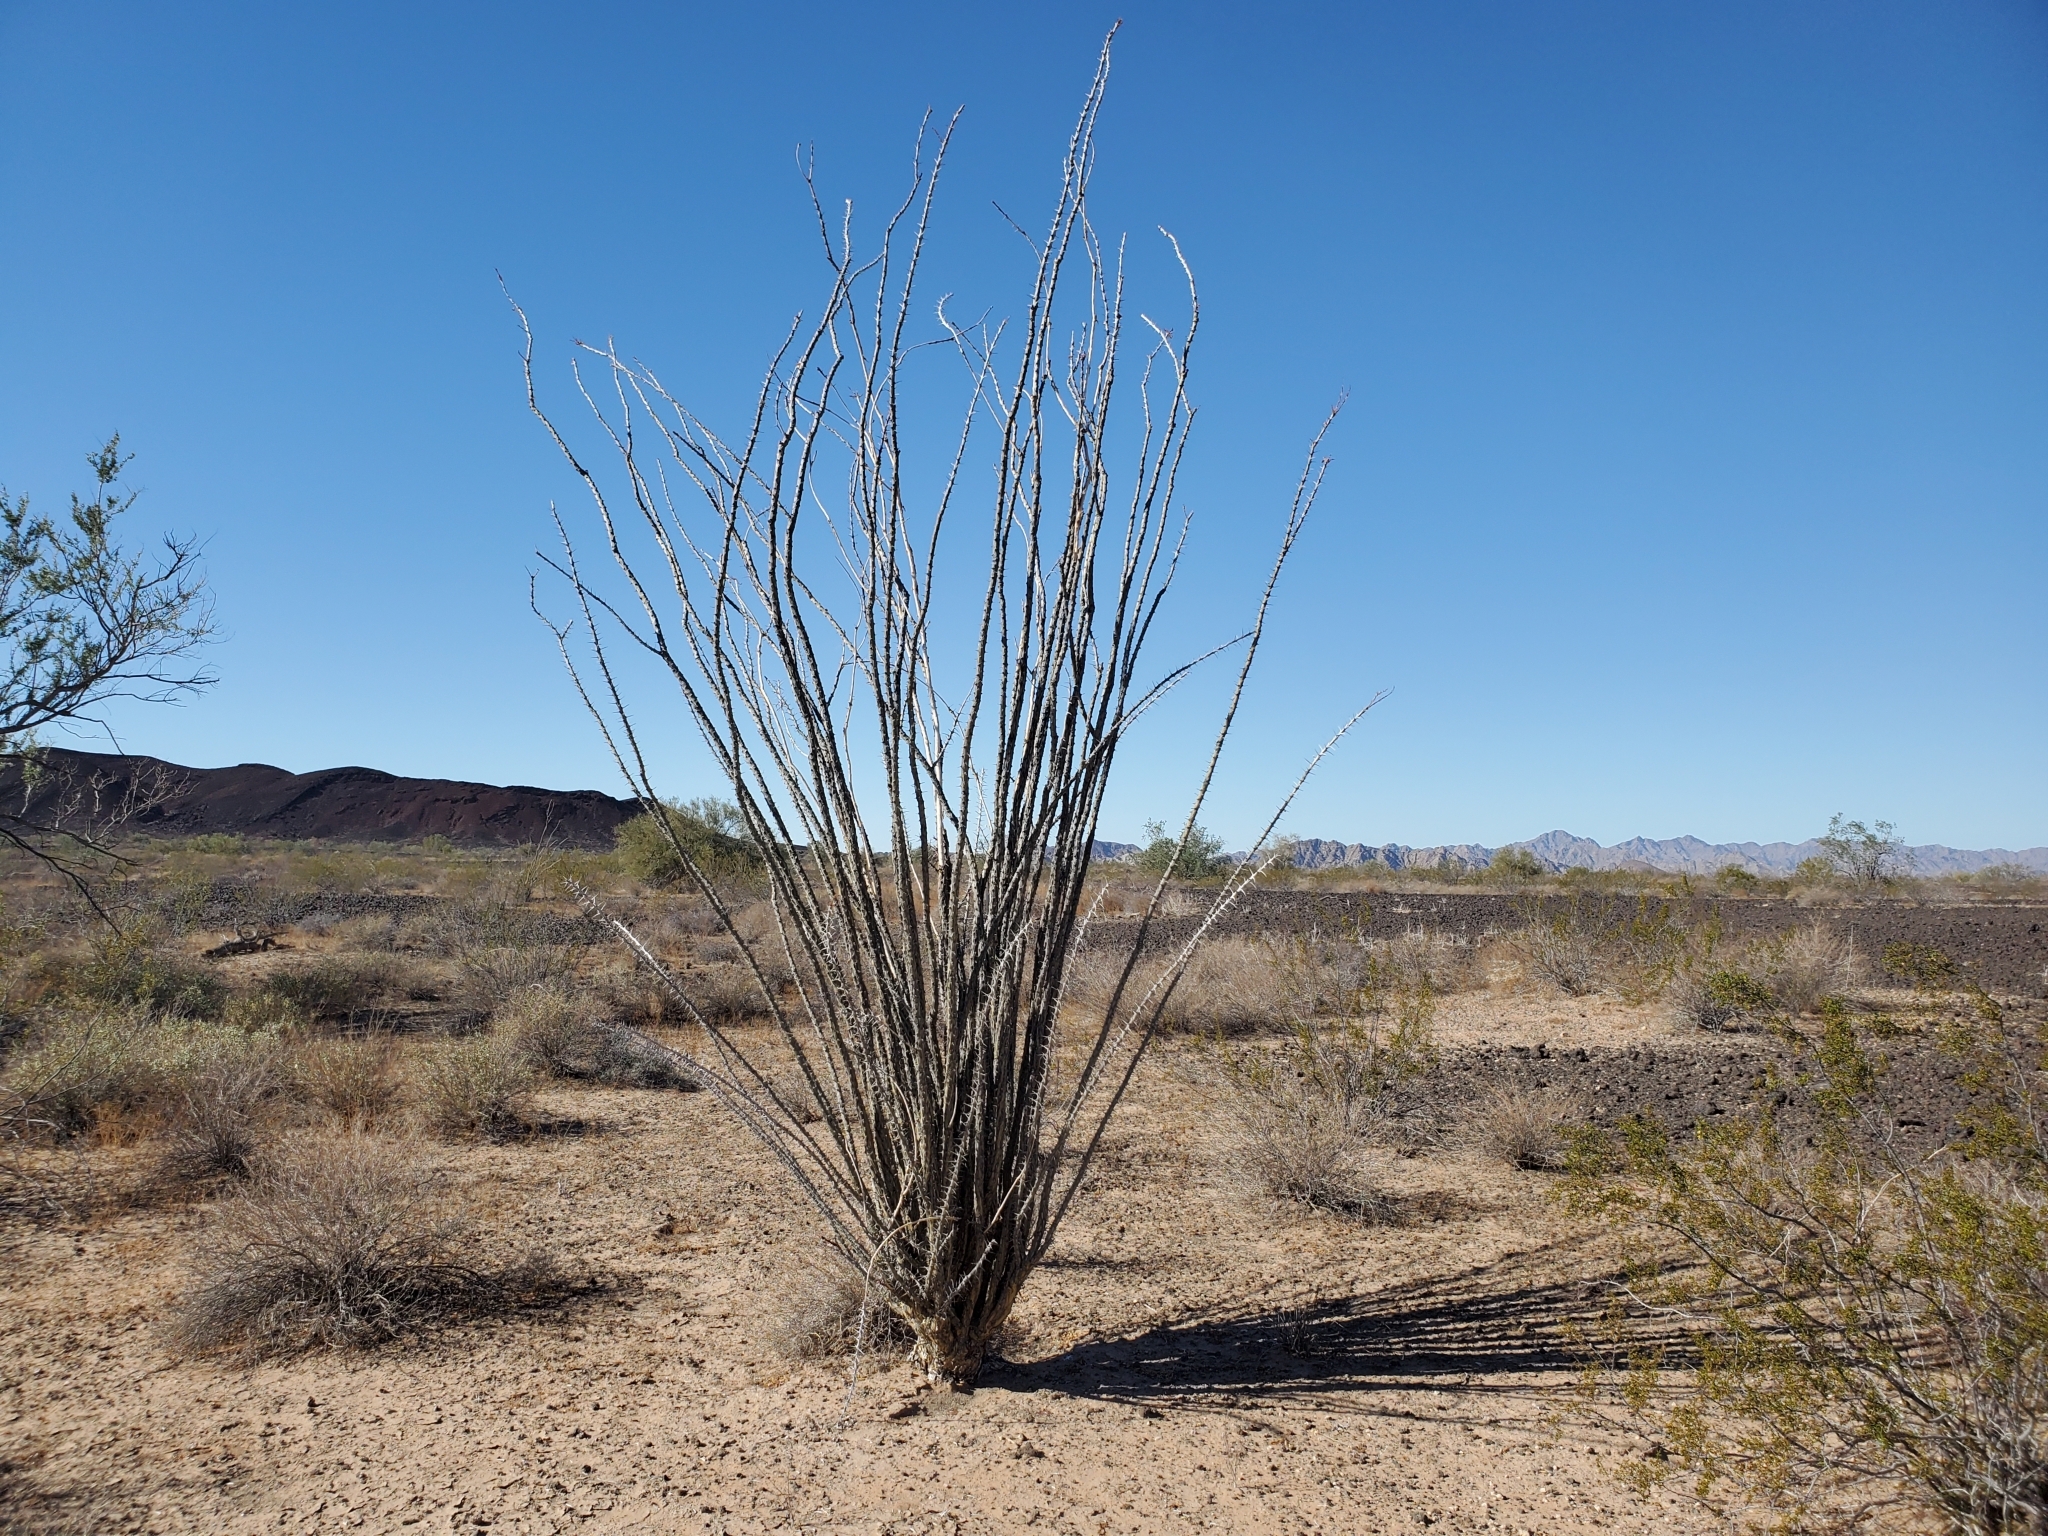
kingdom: Plantae
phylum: Tracheophyta
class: Magnoliopsida
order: Ericales
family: Fouquieriaceae
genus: Fouquieria
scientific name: Fouquieria splendens
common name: Vine-cactus
